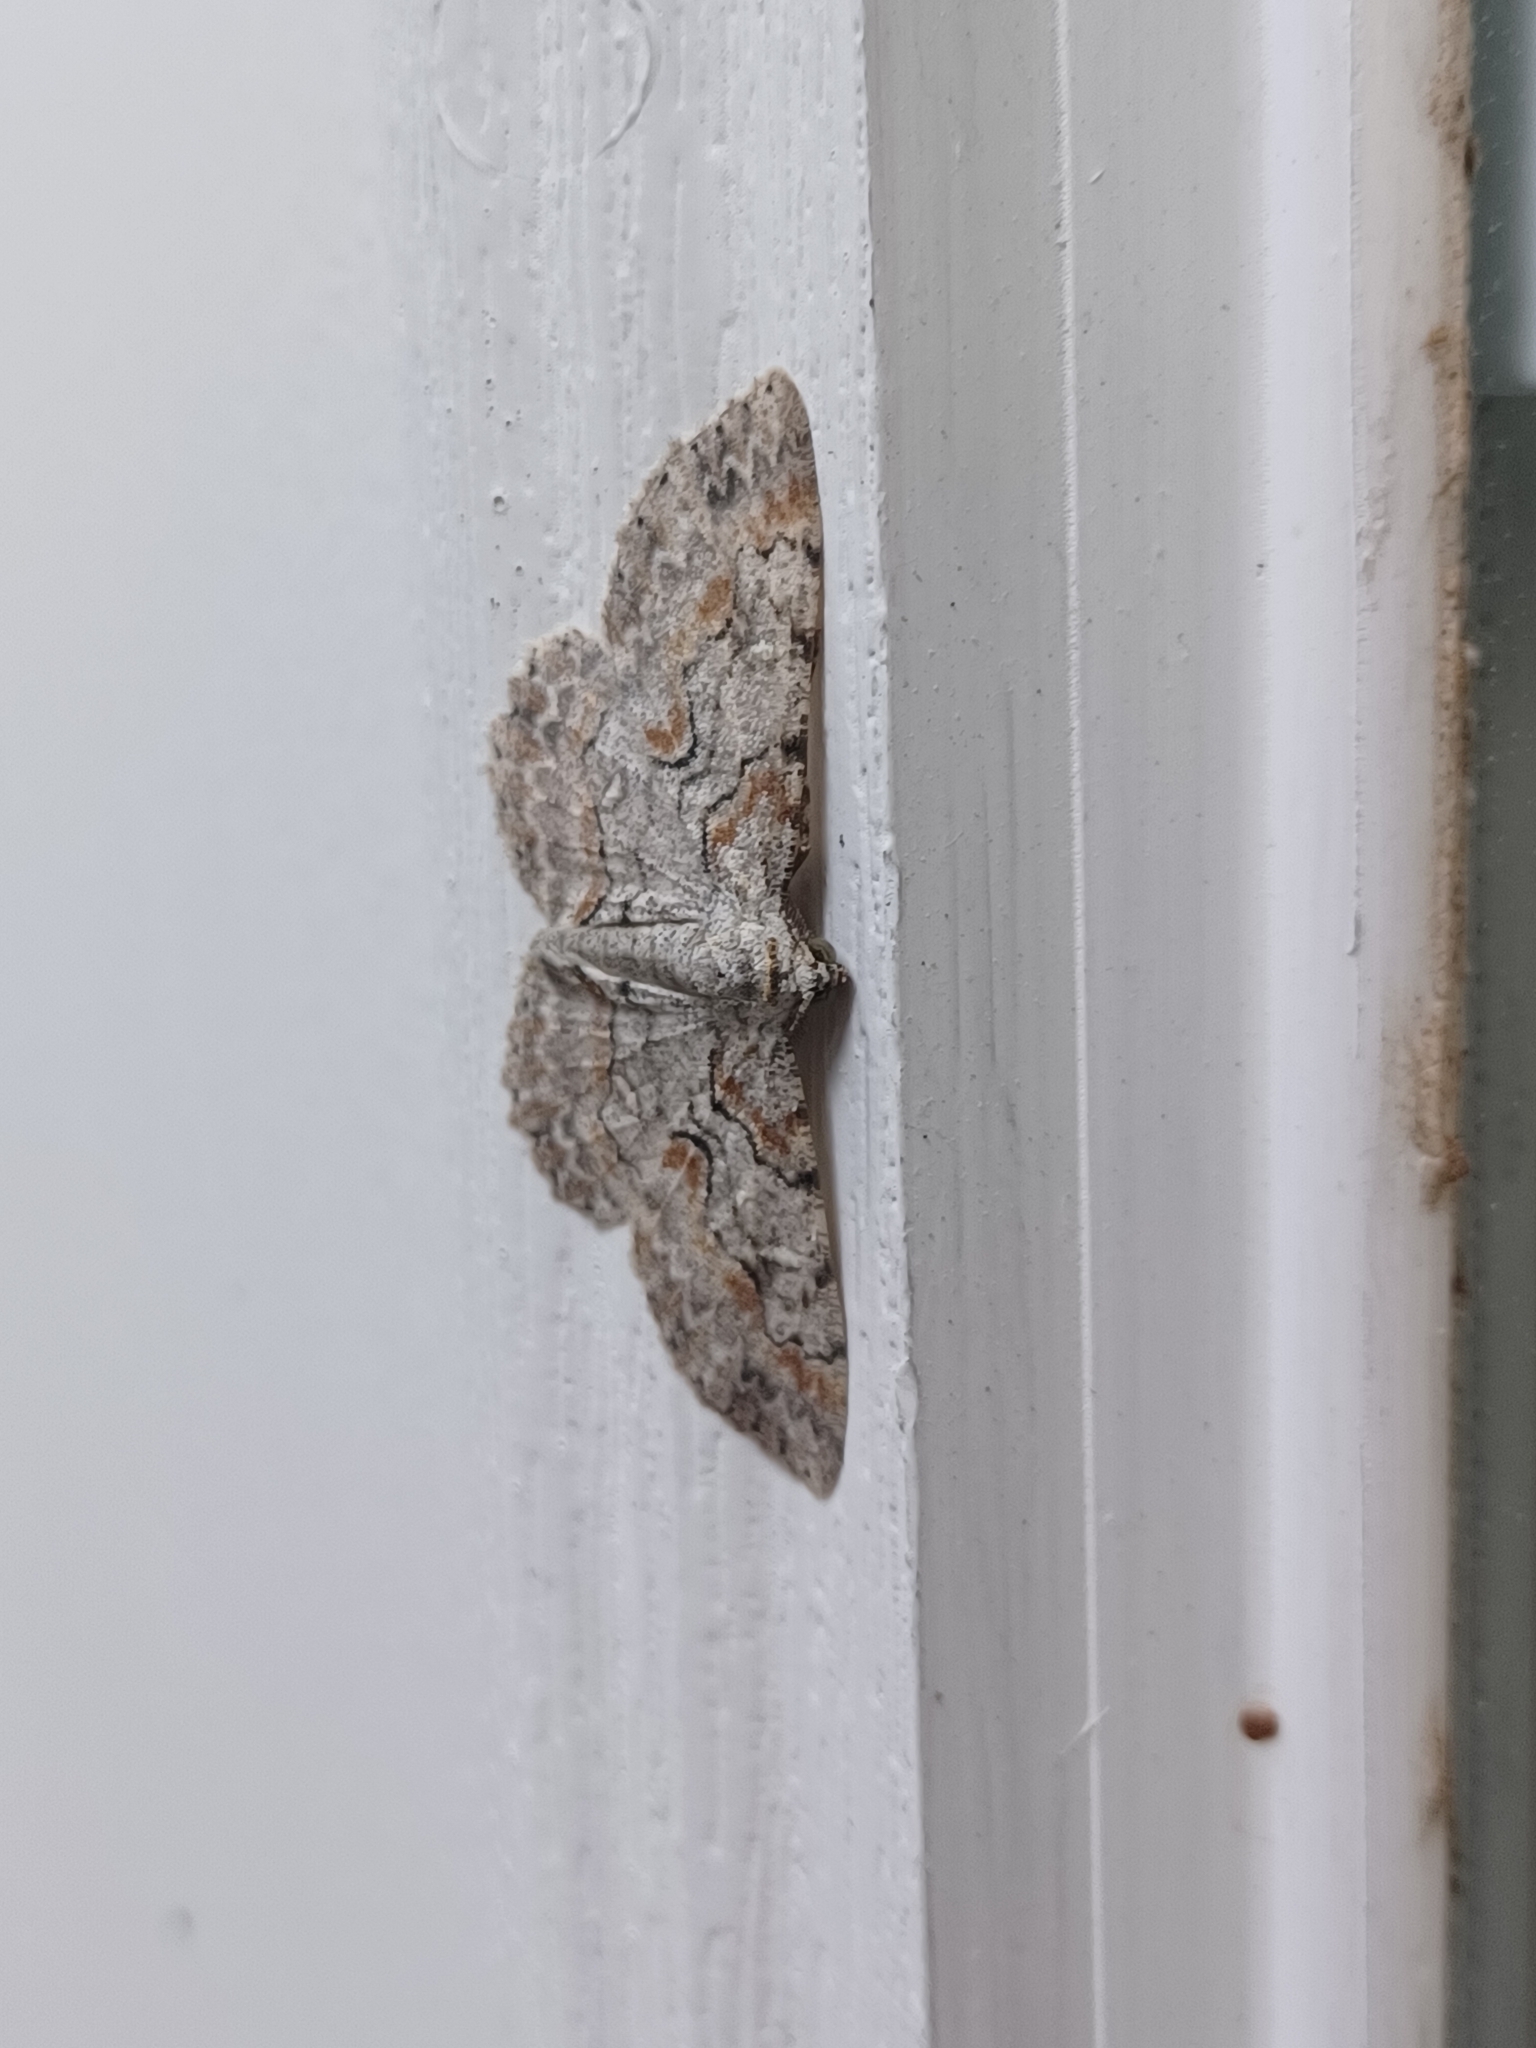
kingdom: Animalia
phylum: Arthropoda
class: Insecta
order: Lepidoptera
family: Geometridae
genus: Iridopsis
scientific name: Iridopsis defectaria
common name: Brown-shaded gray
